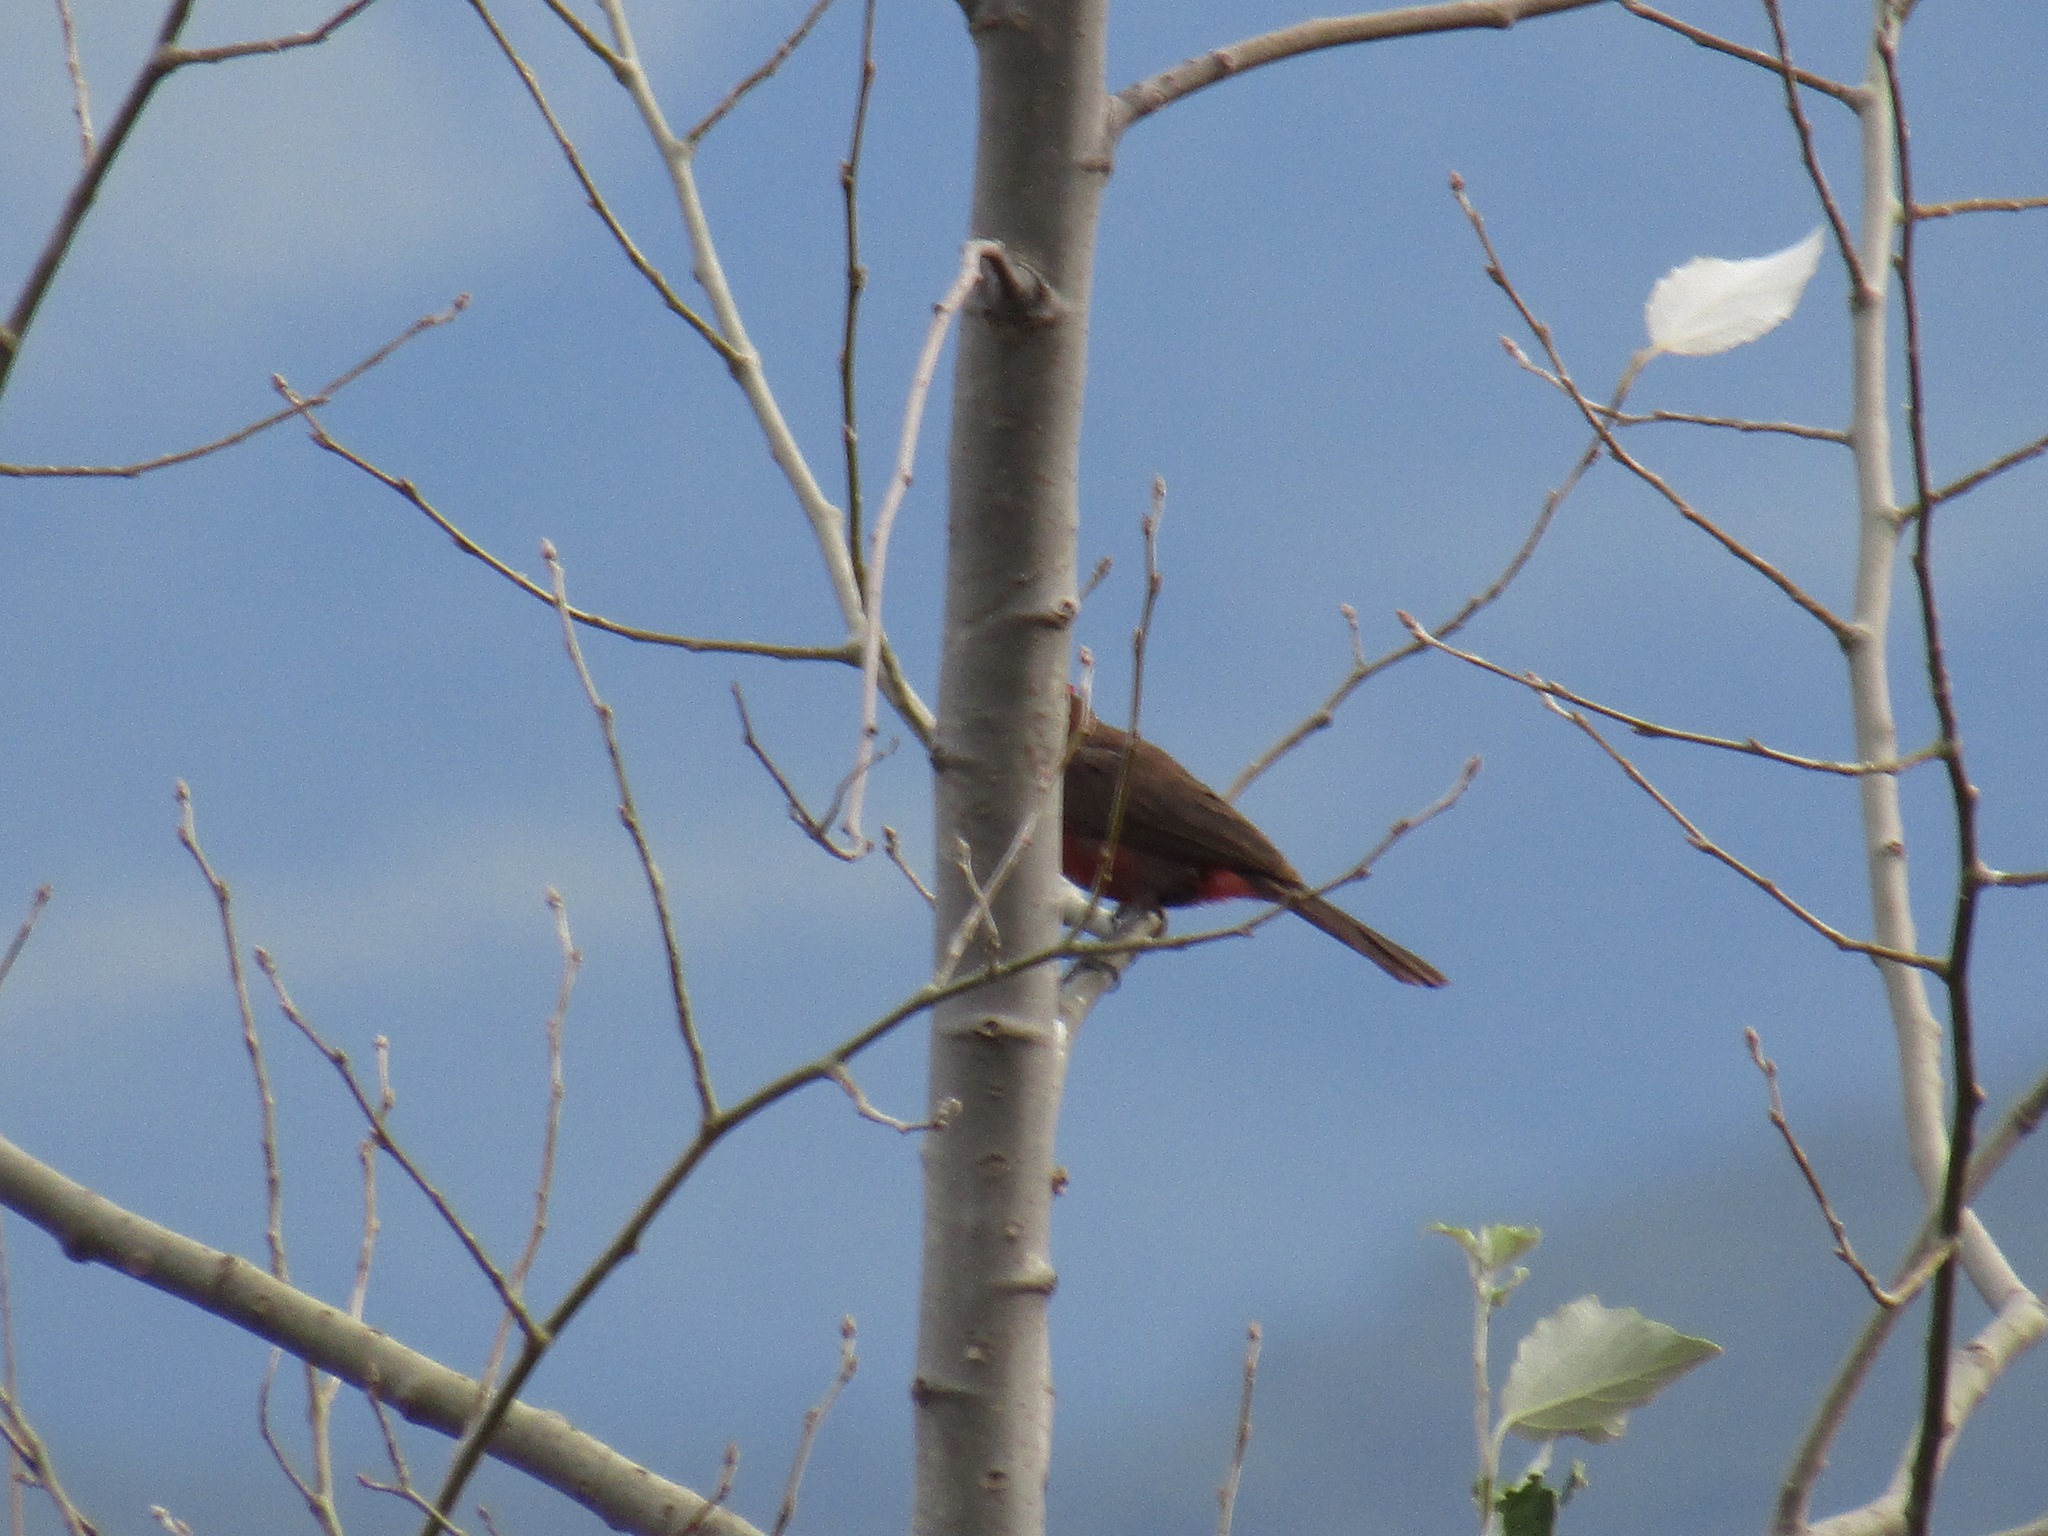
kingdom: Animalia
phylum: Chordata
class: Aves
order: Passeriformes
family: Thraupidae
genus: Coryphospingus
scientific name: Coryphospingus cucullatus
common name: Red pileated finch
